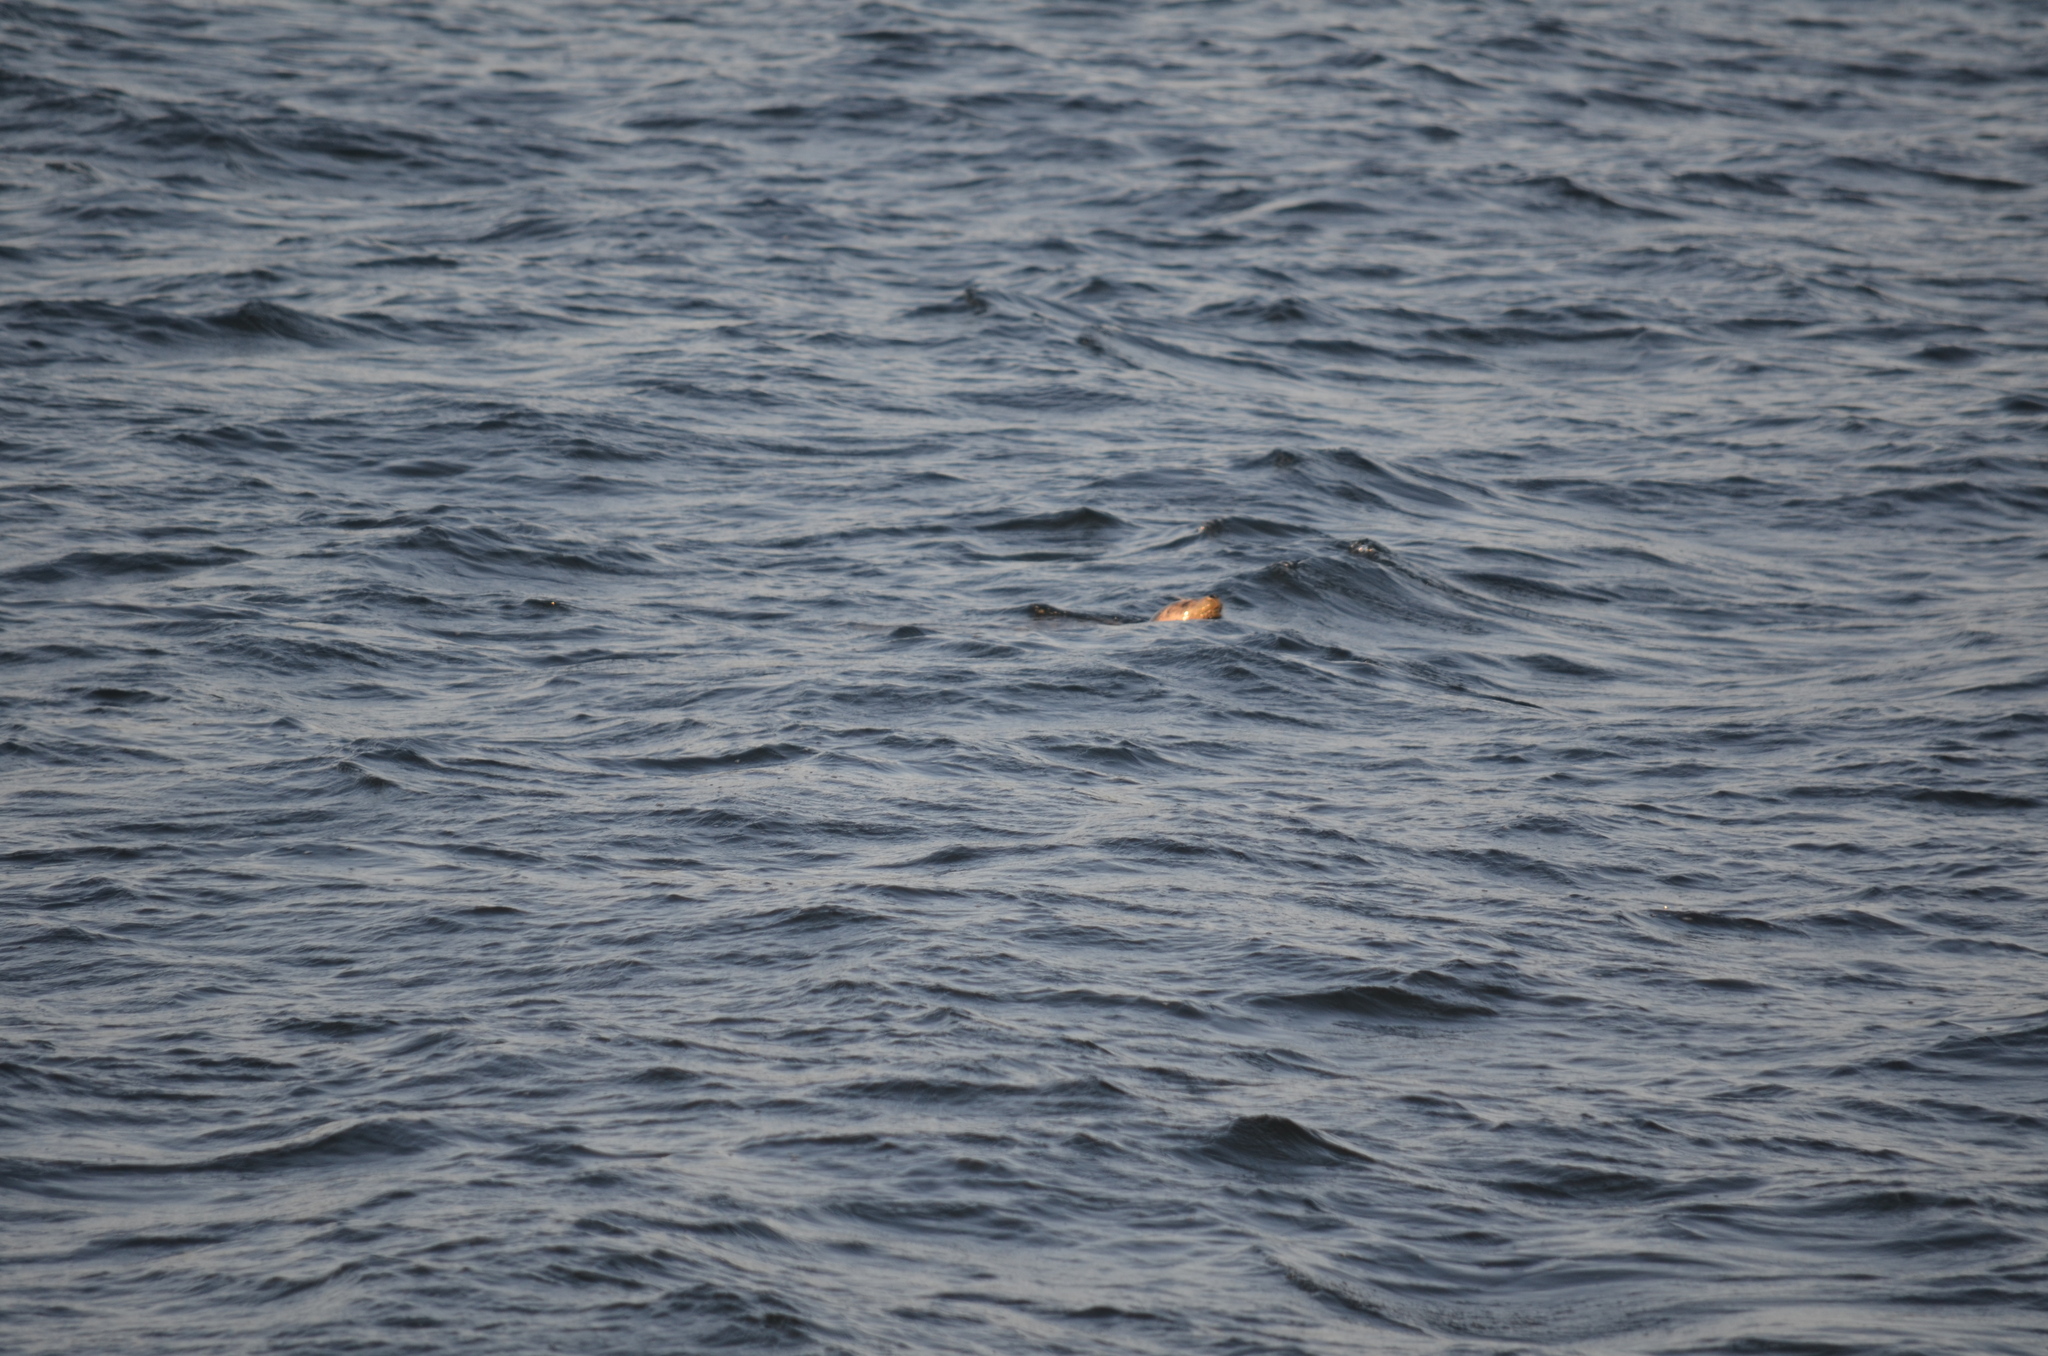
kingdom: Animalia
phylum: Chordata
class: Mammalia
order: Carnivora
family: Phocidae
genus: Phoca
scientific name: Phoca vitulina
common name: Harbor seal
